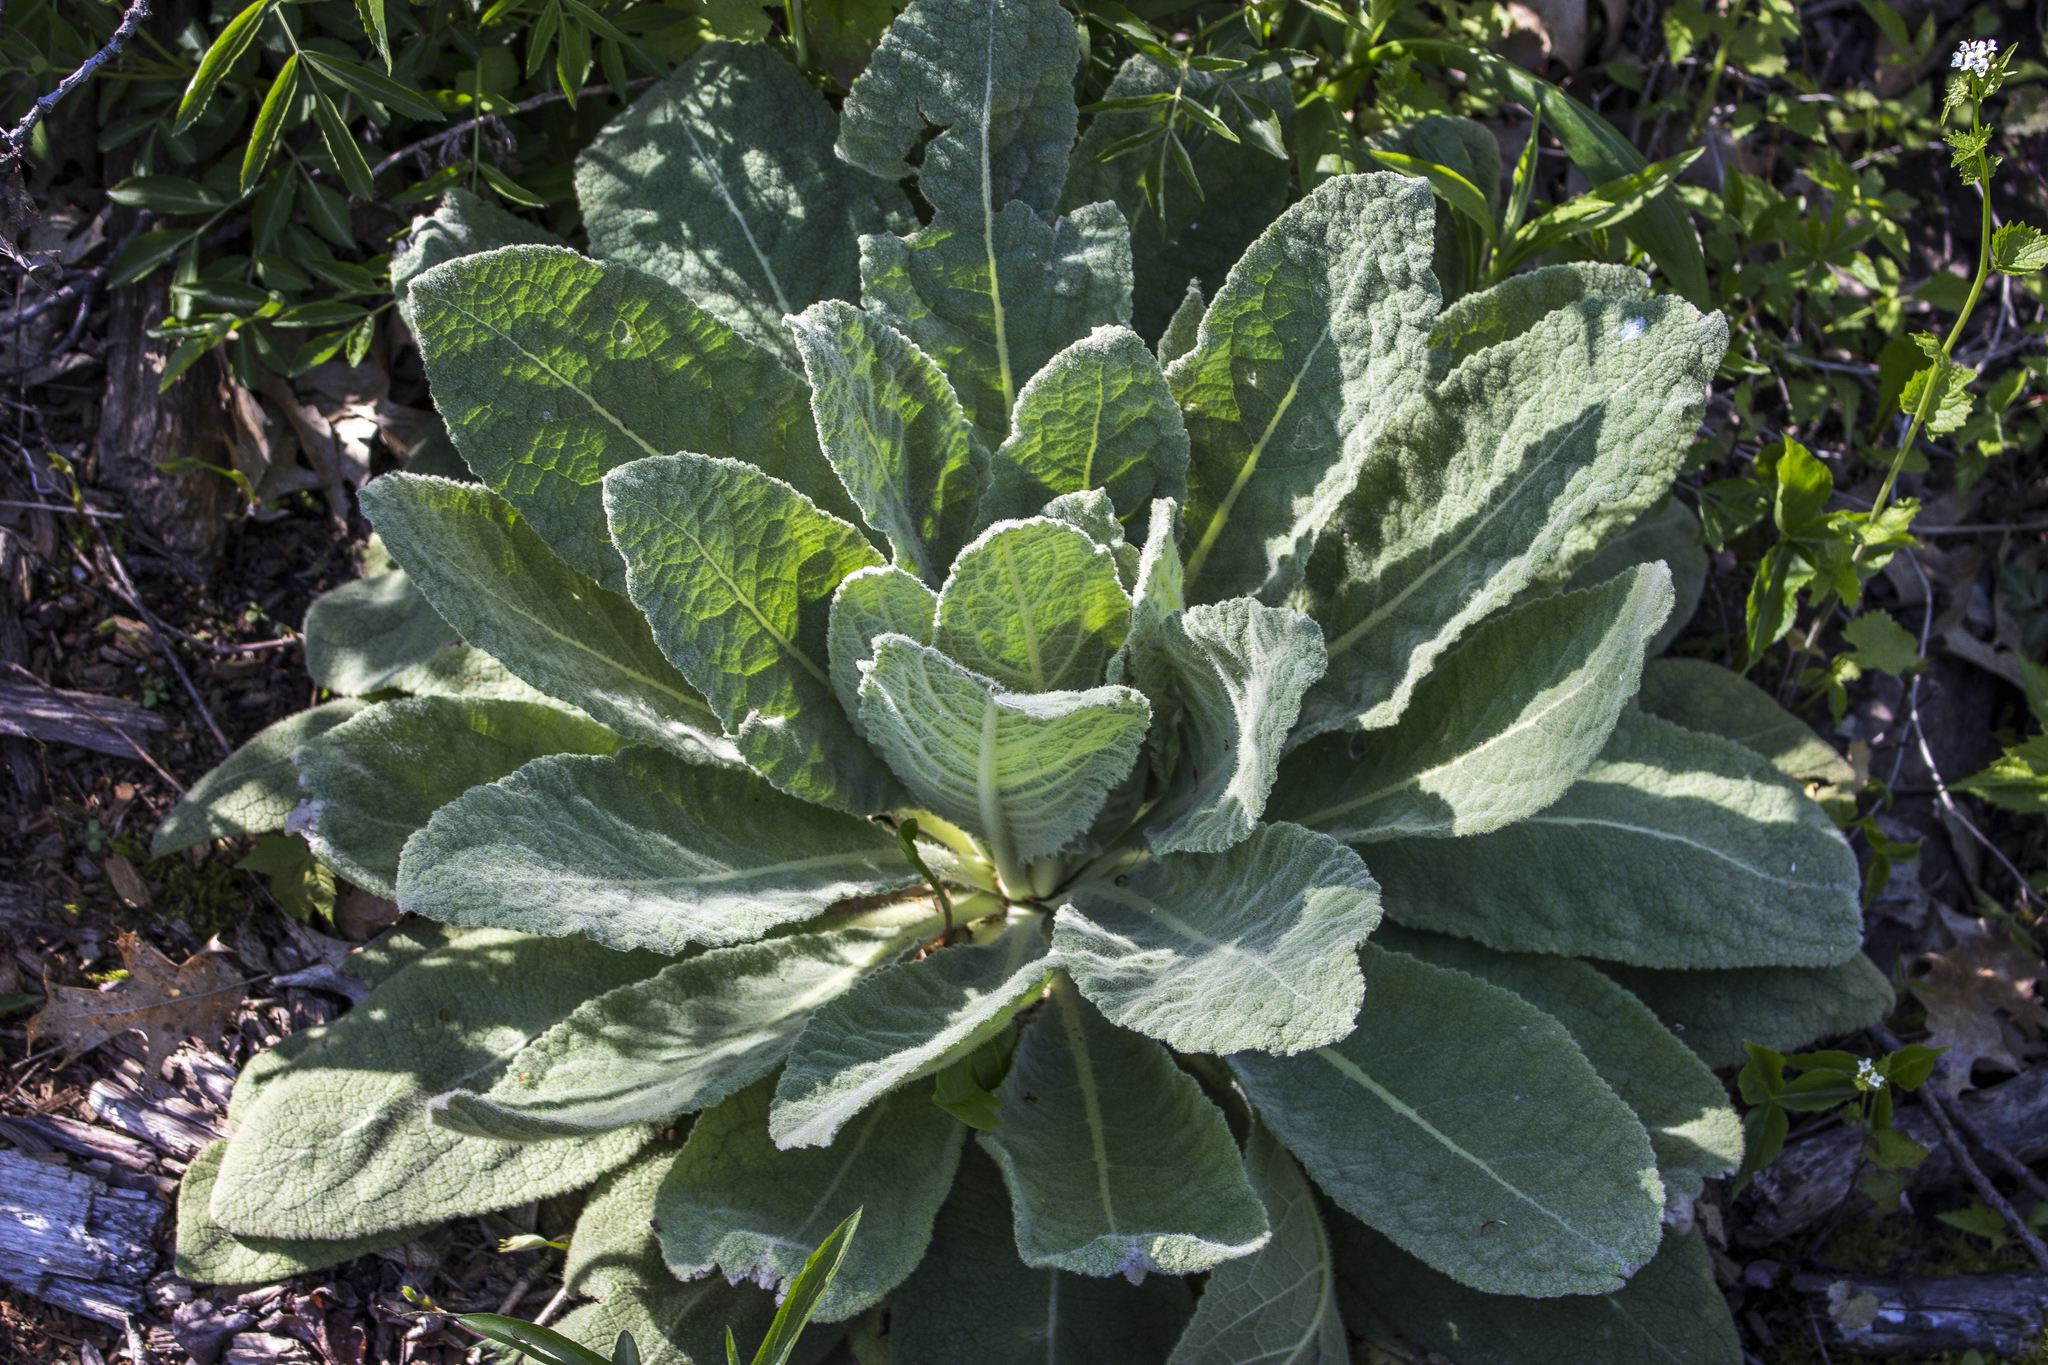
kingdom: Plantae
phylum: Tracheophyta
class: Magnoliopsida
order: Lamiales
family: Scrophulariaceae
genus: Verbascum
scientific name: Verbascum thapsus
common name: Common mullein
